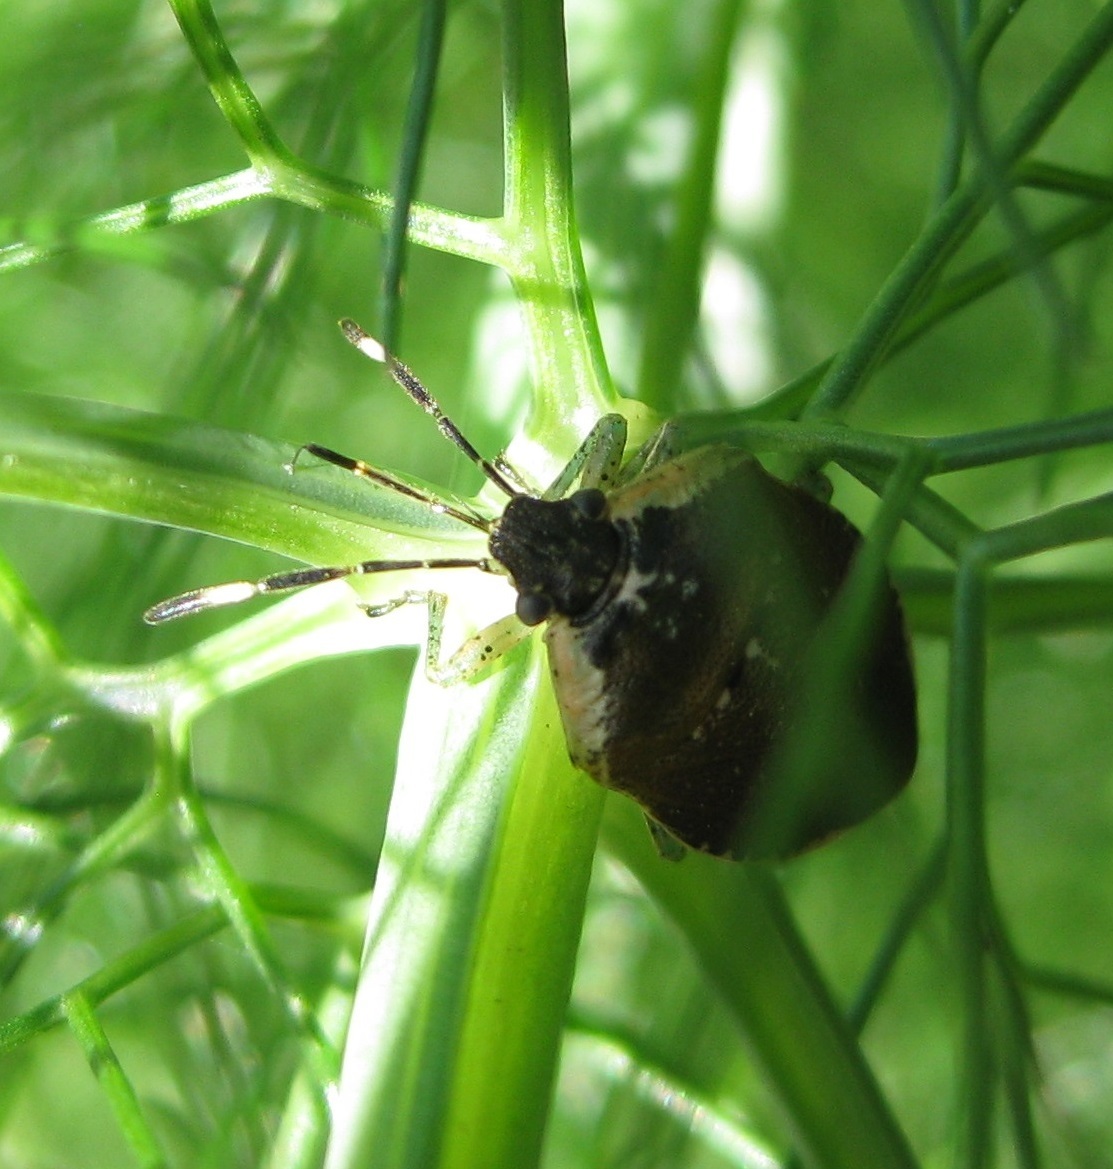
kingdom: Animalia
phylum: Arthropoda
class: Insecta
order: Hemiptera
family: Pentatomidae
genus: Monteithiella
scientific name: Monteithiella
